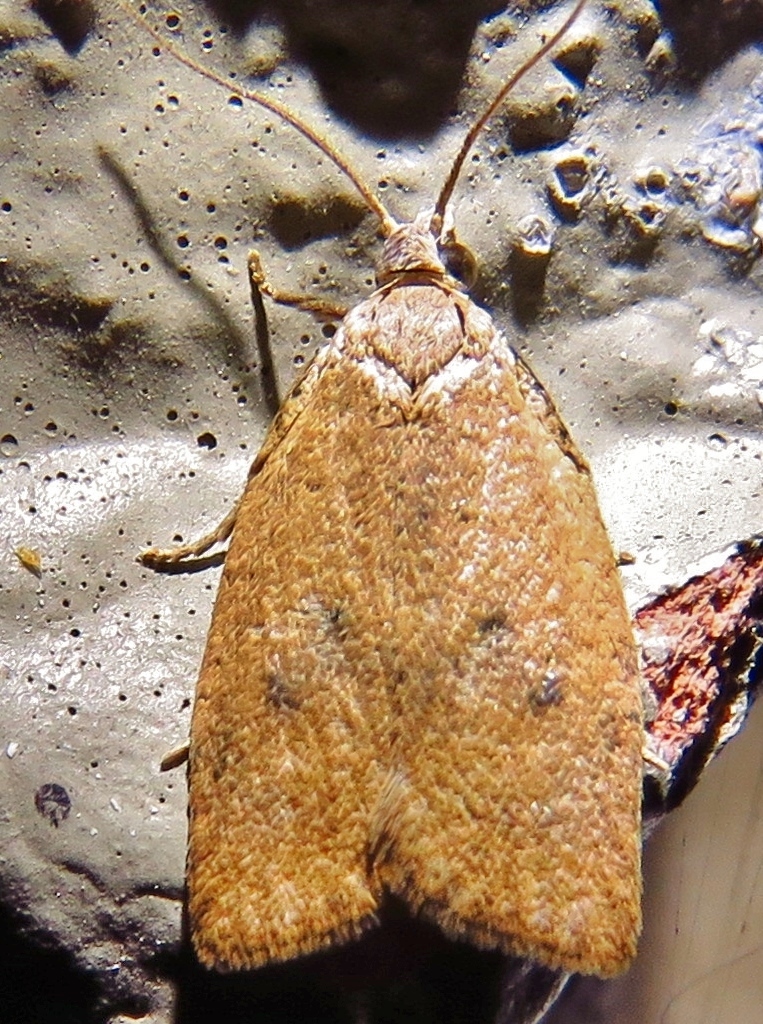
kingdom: Animalia
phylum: Arthropoda
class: Insecta
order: Lepidoptera
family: Tortricidae
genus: Sparganothoides
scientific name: Sparganothoides lentiginosana
